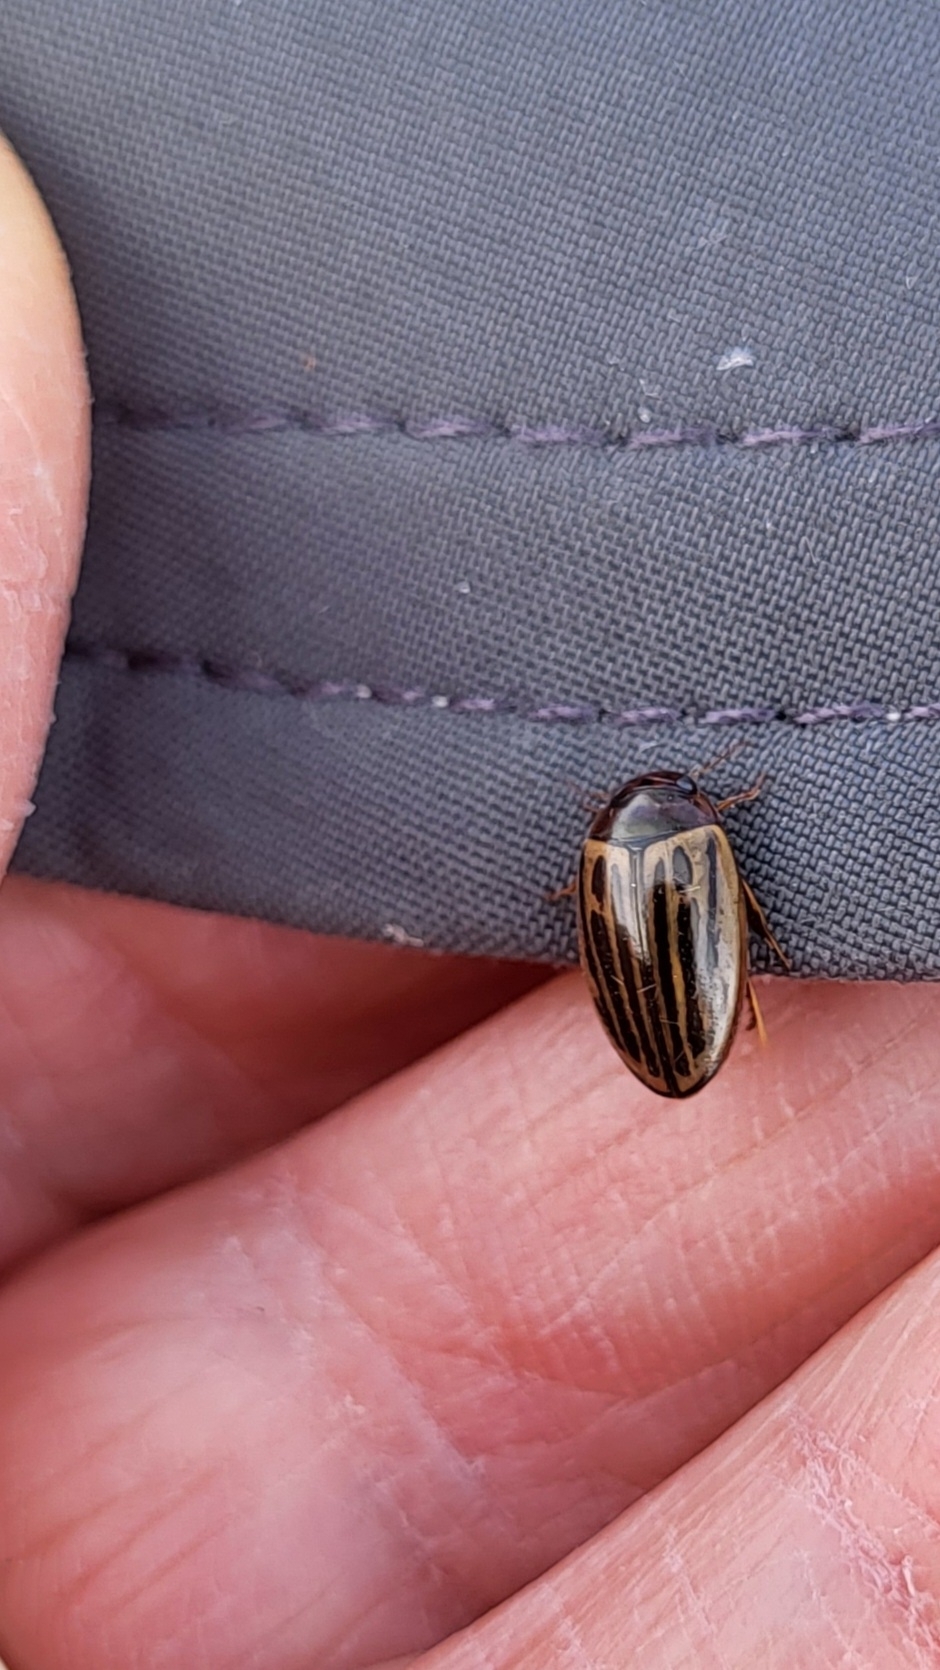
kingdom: Animalia
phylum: Arthropoda
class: Insecta
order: Coleoptera
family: Dytiscidae
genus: Agabus
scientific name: Agabus disintegratus
